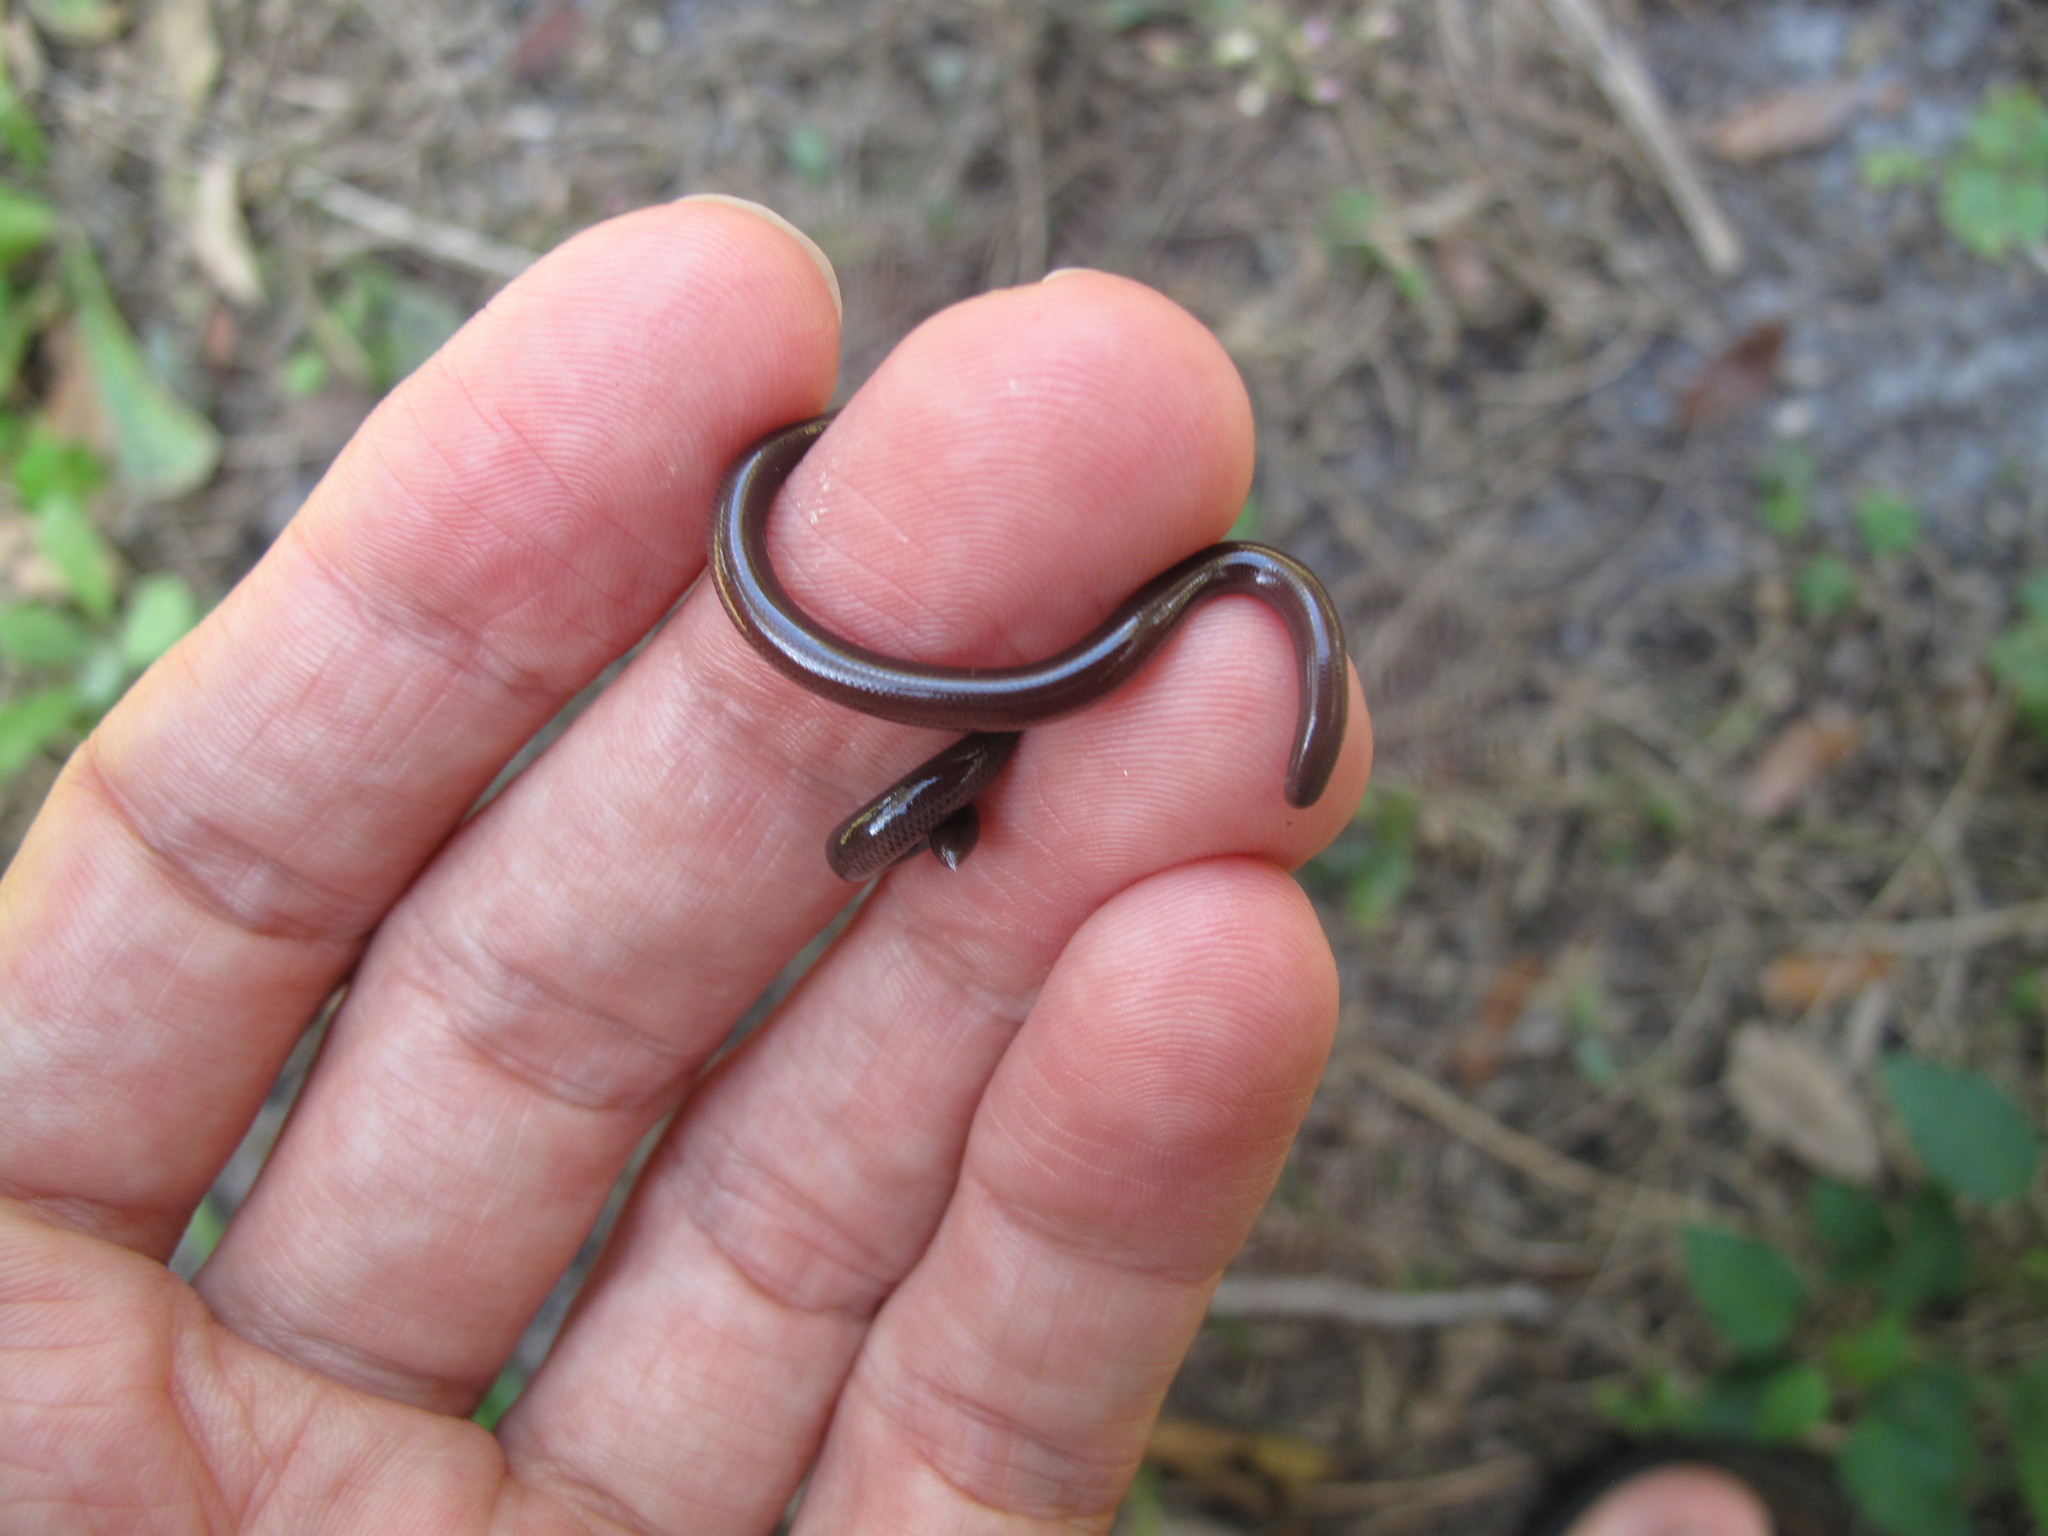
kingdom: Animalia
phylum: Chordata
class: Squamata
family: Typhlopidae
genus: Indotyphlops
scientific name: Indotyphlops braminus
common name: Brahminy blindsnake
